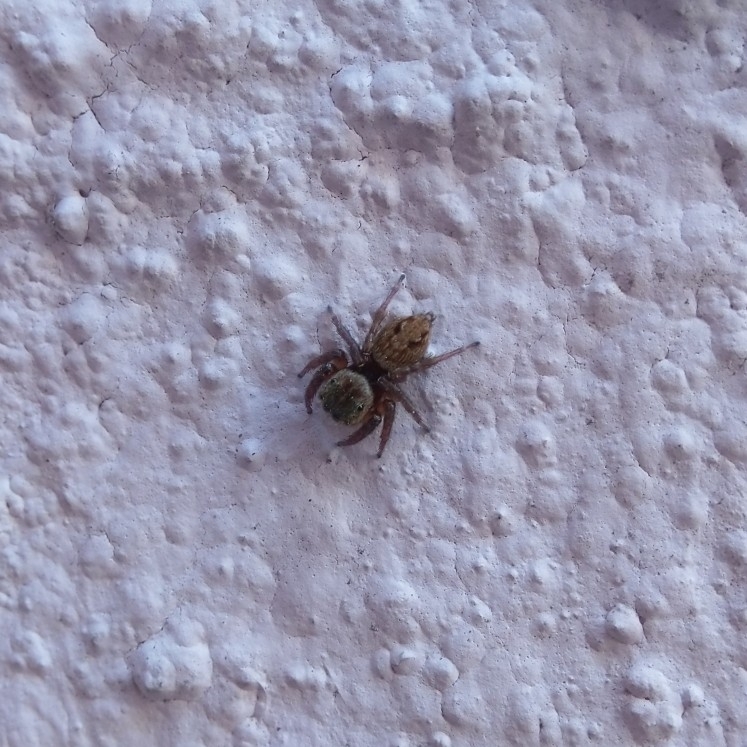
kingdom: Animalia
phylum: Arthropoda
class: Arachnida
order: Araneae
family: Salticidae
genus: Hasarius
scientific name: Hasarius adansoni
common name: Jumping spider
